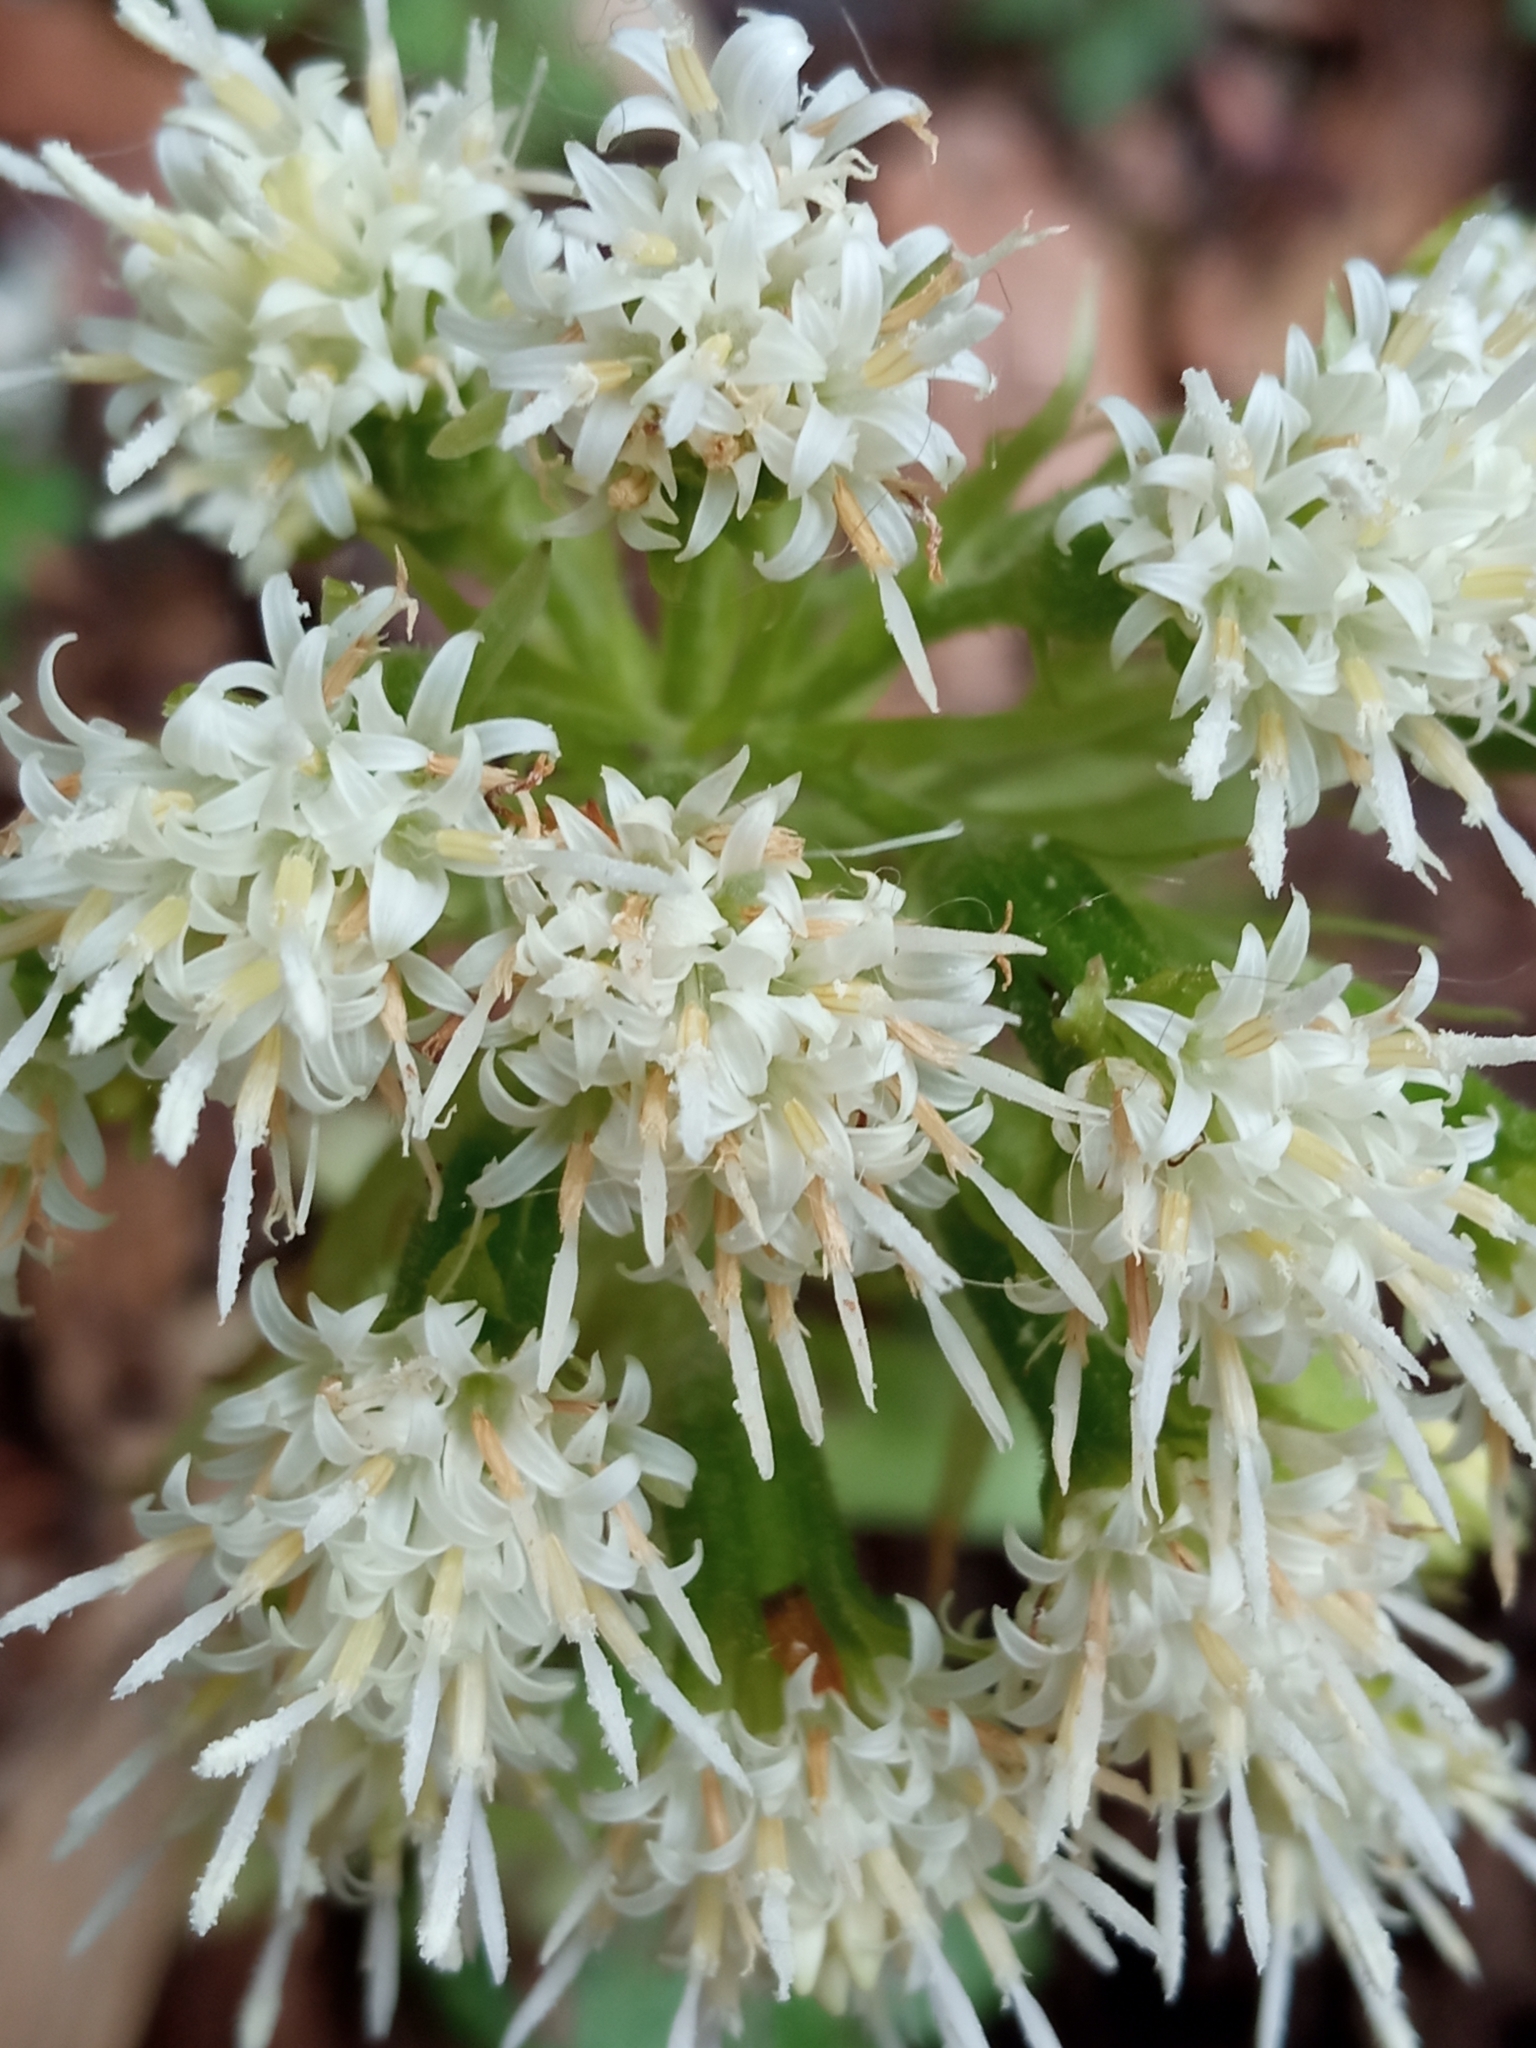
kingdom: Plantae
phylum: Tracheophyta
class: Magnoliopsida
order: Asterales
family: Asteraceae
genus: Petasites
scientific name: Petasites albus
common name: White butterbur
